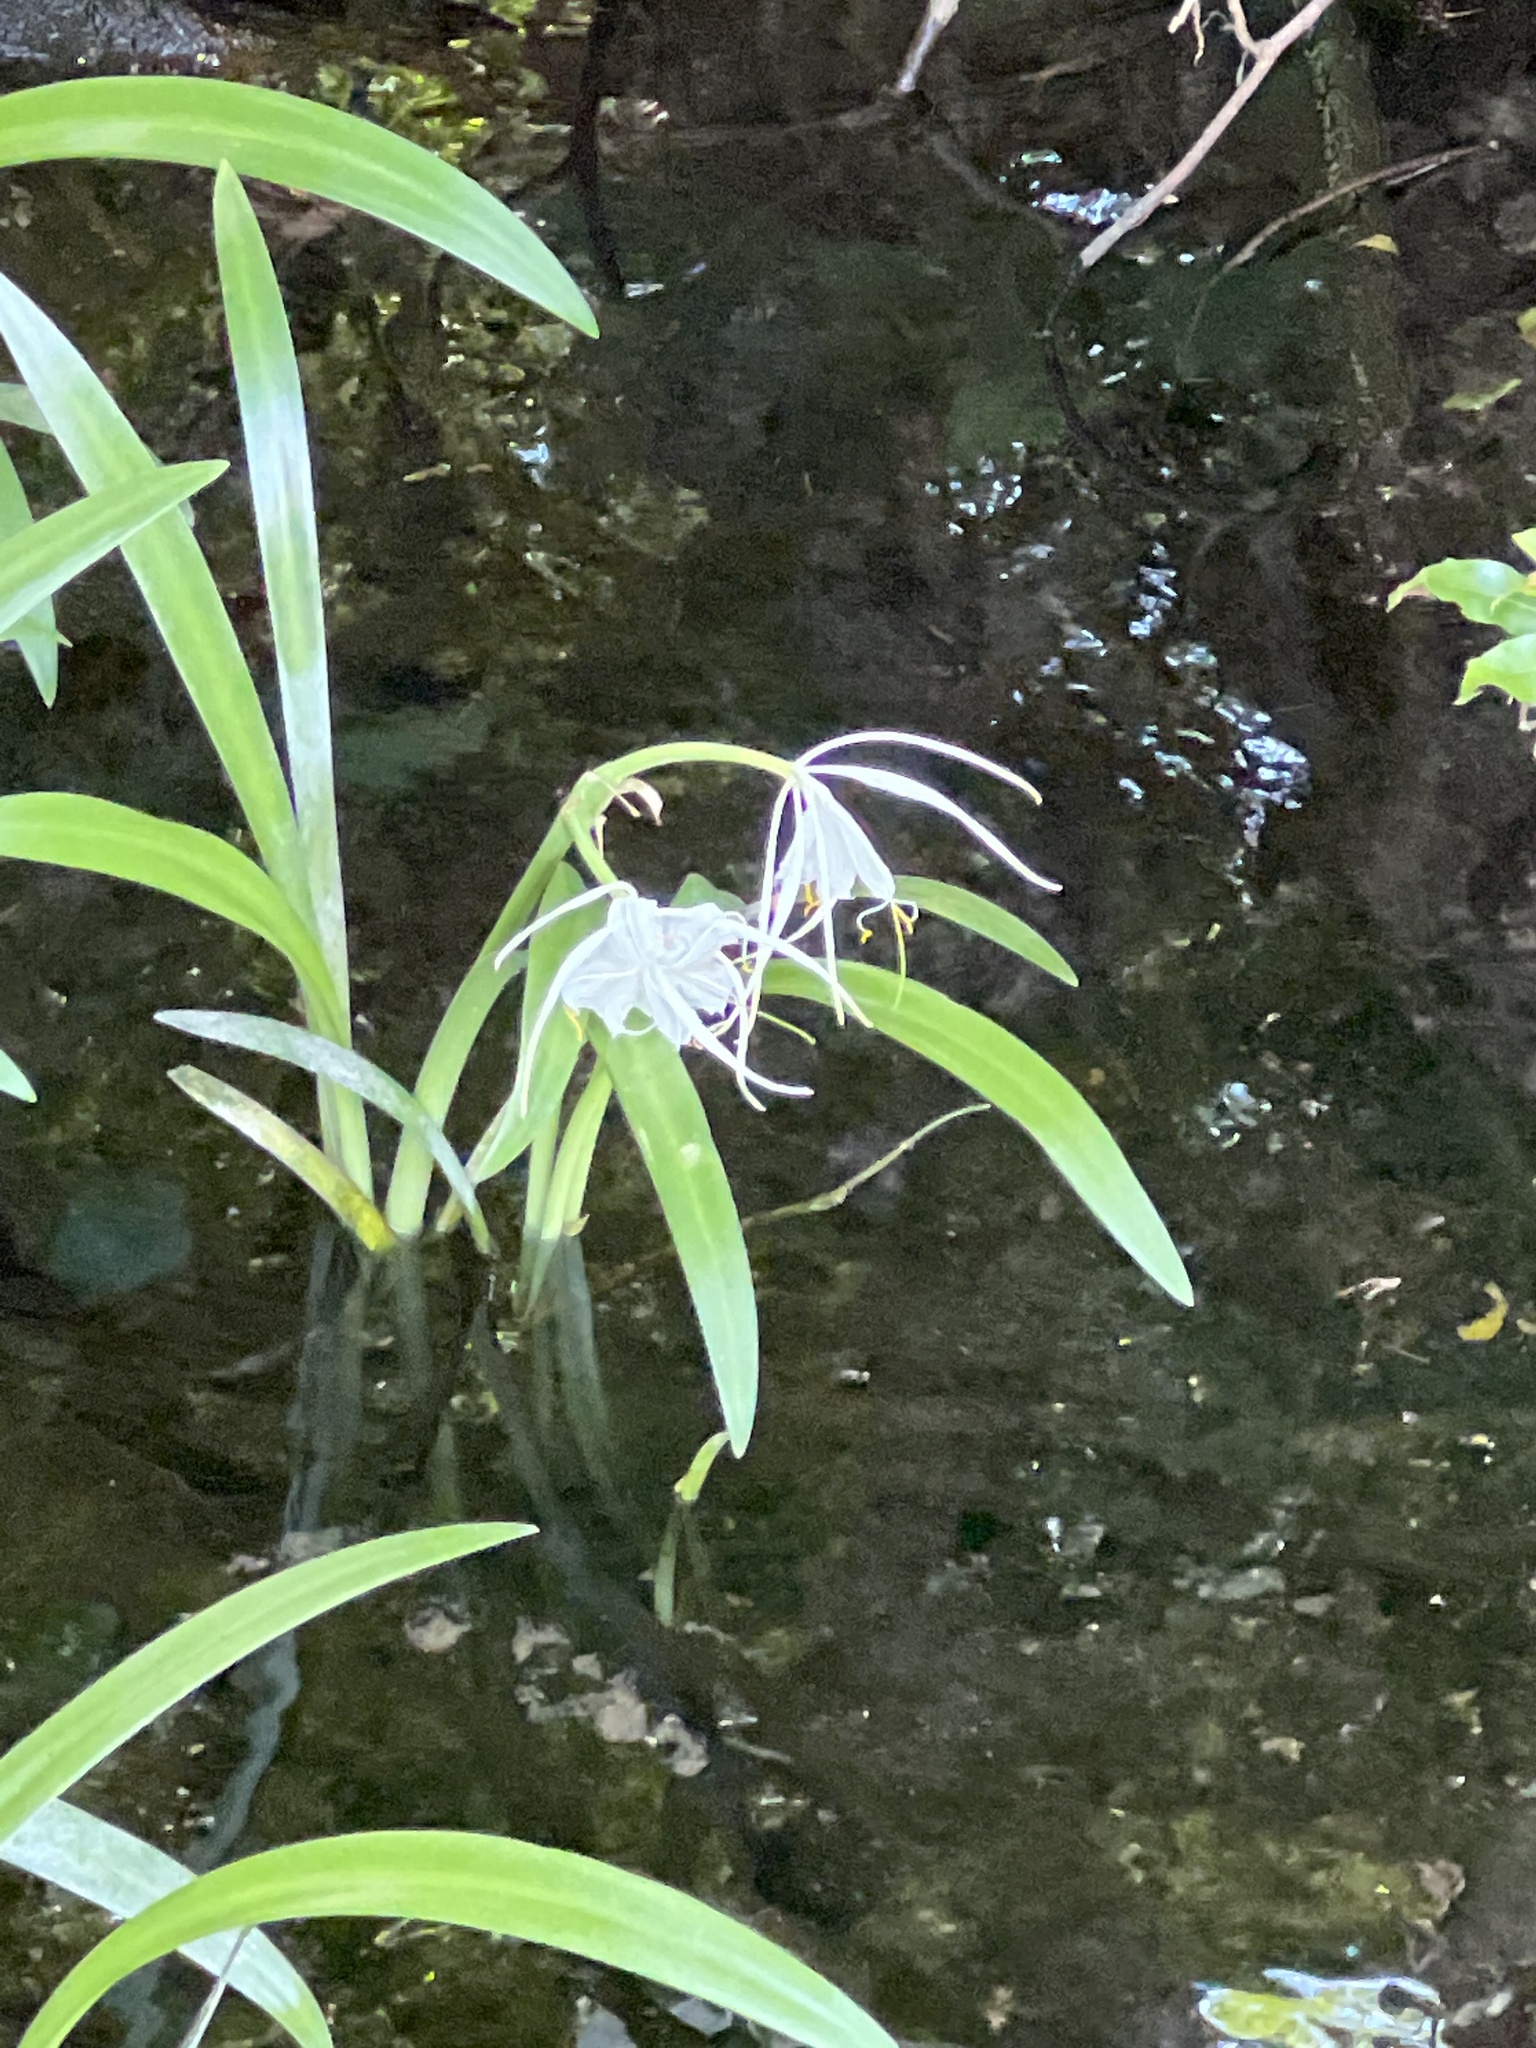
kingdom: Plantae
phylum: Tracheophyta
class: Liliopsida
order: Asparagales
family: Amaryllidaceae
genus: Hymenocallis
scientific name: Hymenocallis rotata
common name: Spring-run spider-lily
